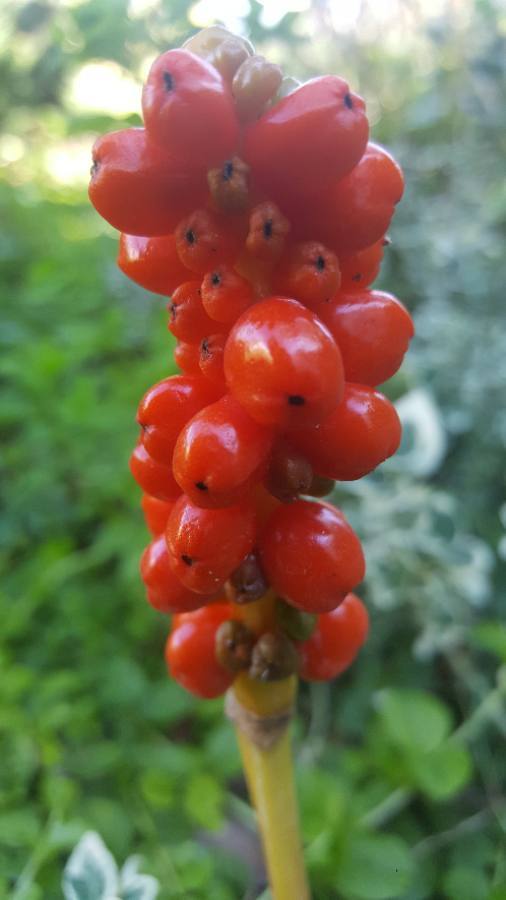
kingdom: Plantae
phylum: Tracheophyta
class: Liliopsida
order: Alismatales
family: Araceae
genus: Arum
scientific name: Arum
